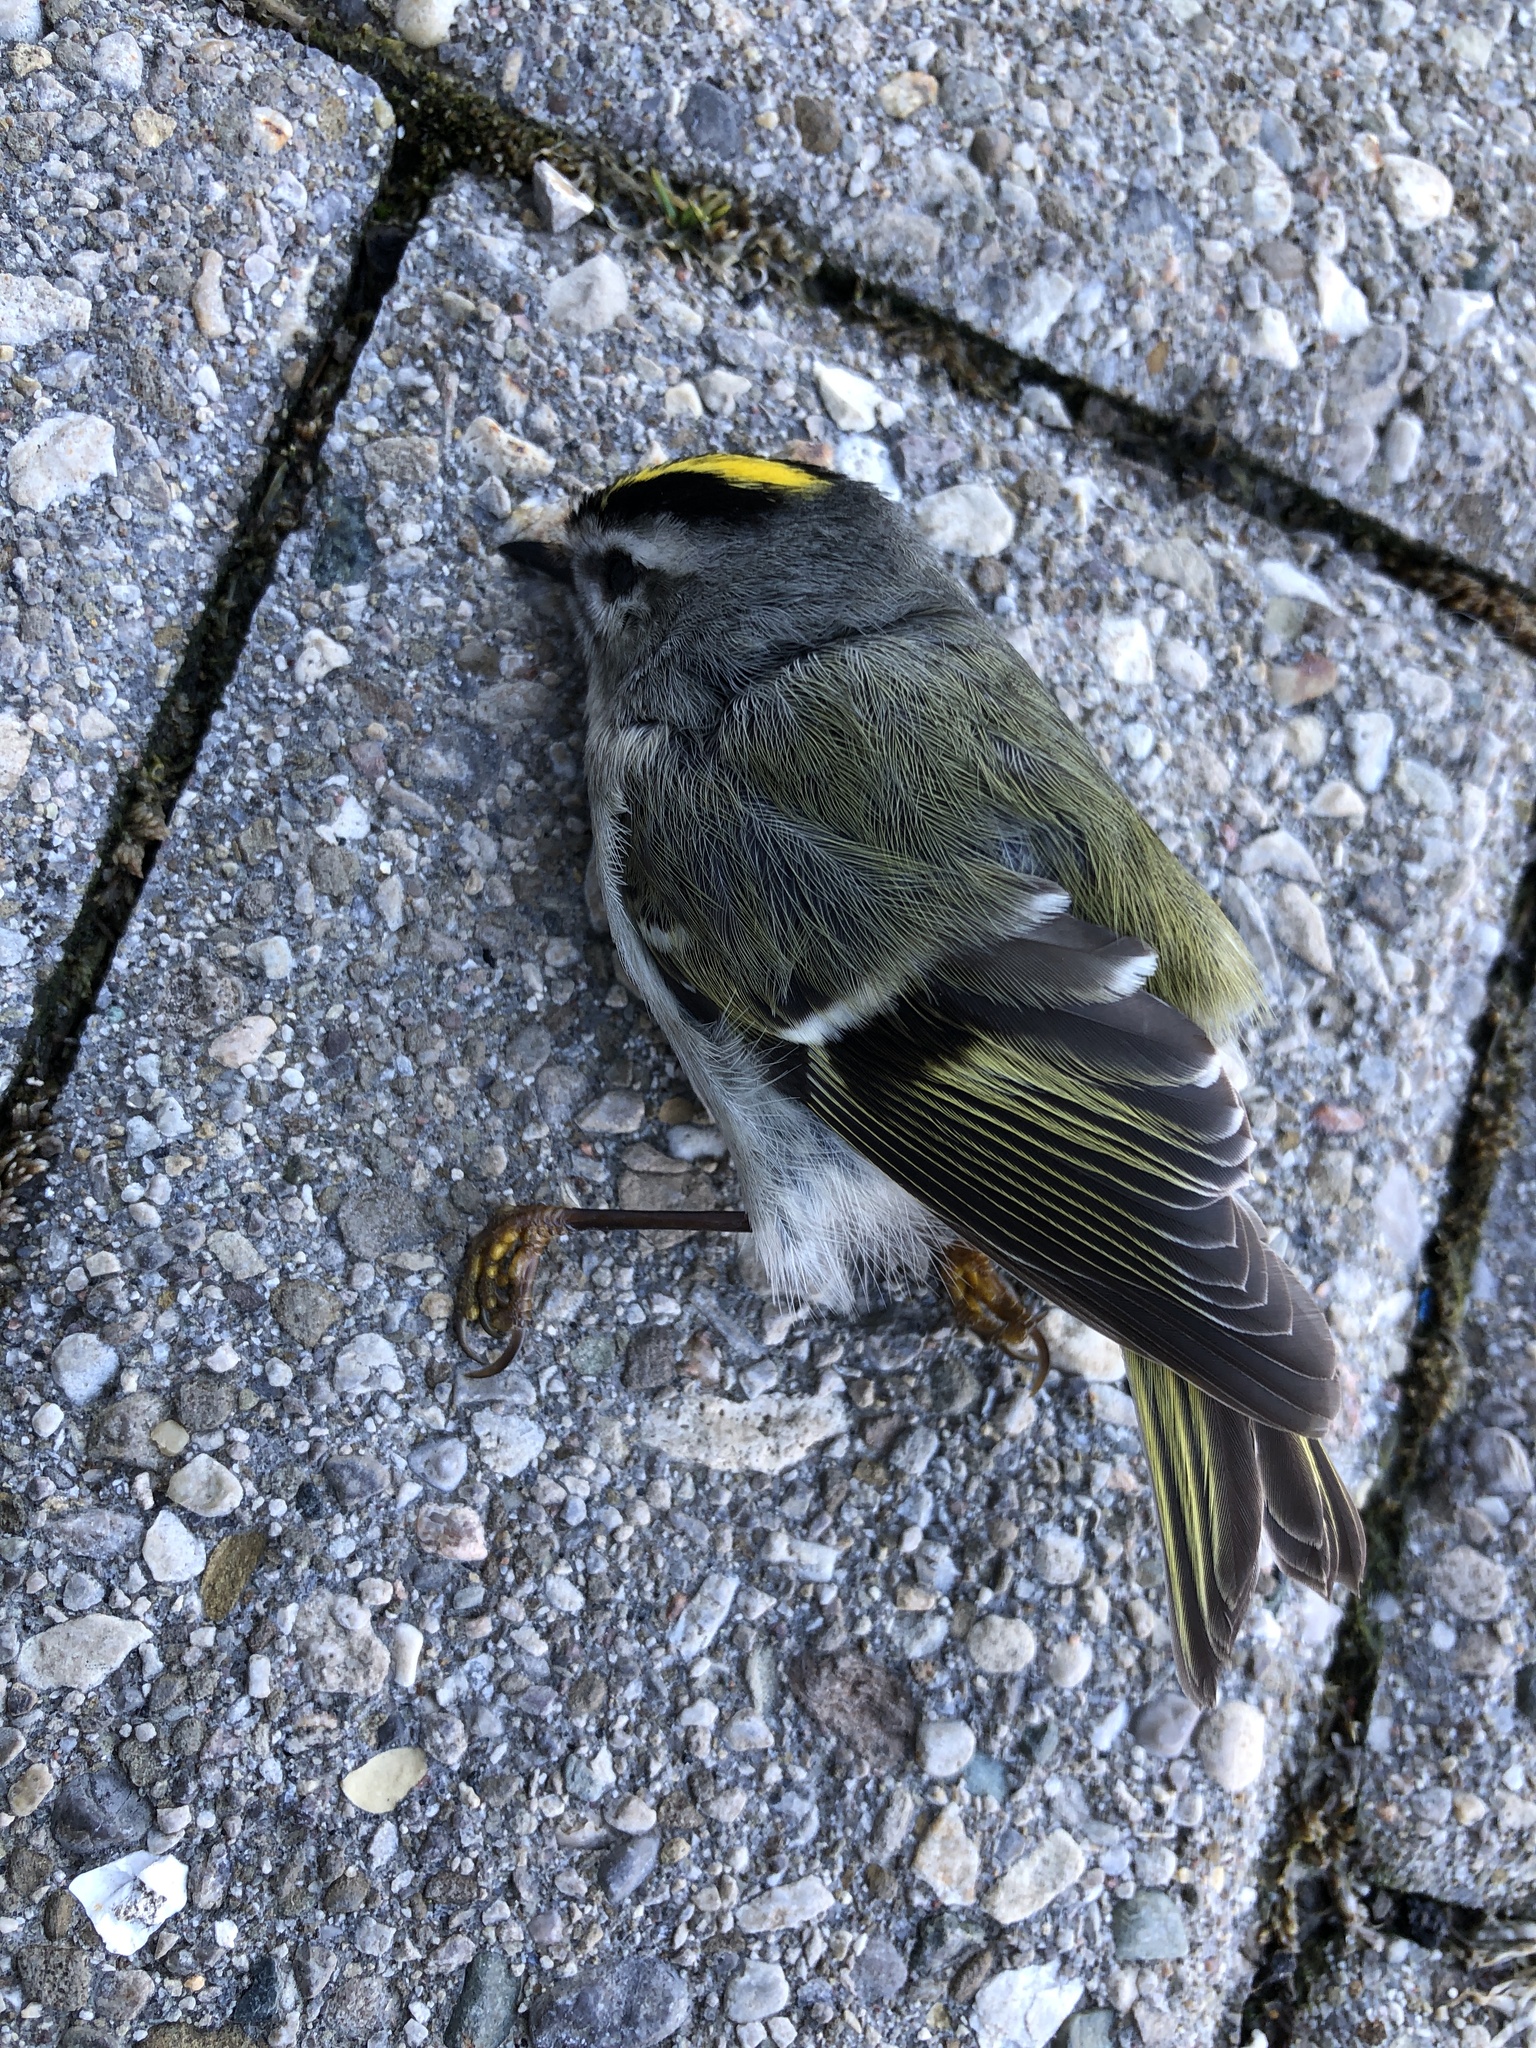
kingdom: Animalia
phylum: Chordata
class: Aves
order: Passeriformes
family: Regulidae
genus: Regulus
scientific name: Regulus satrapa
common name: Golden-crowned kinglet
